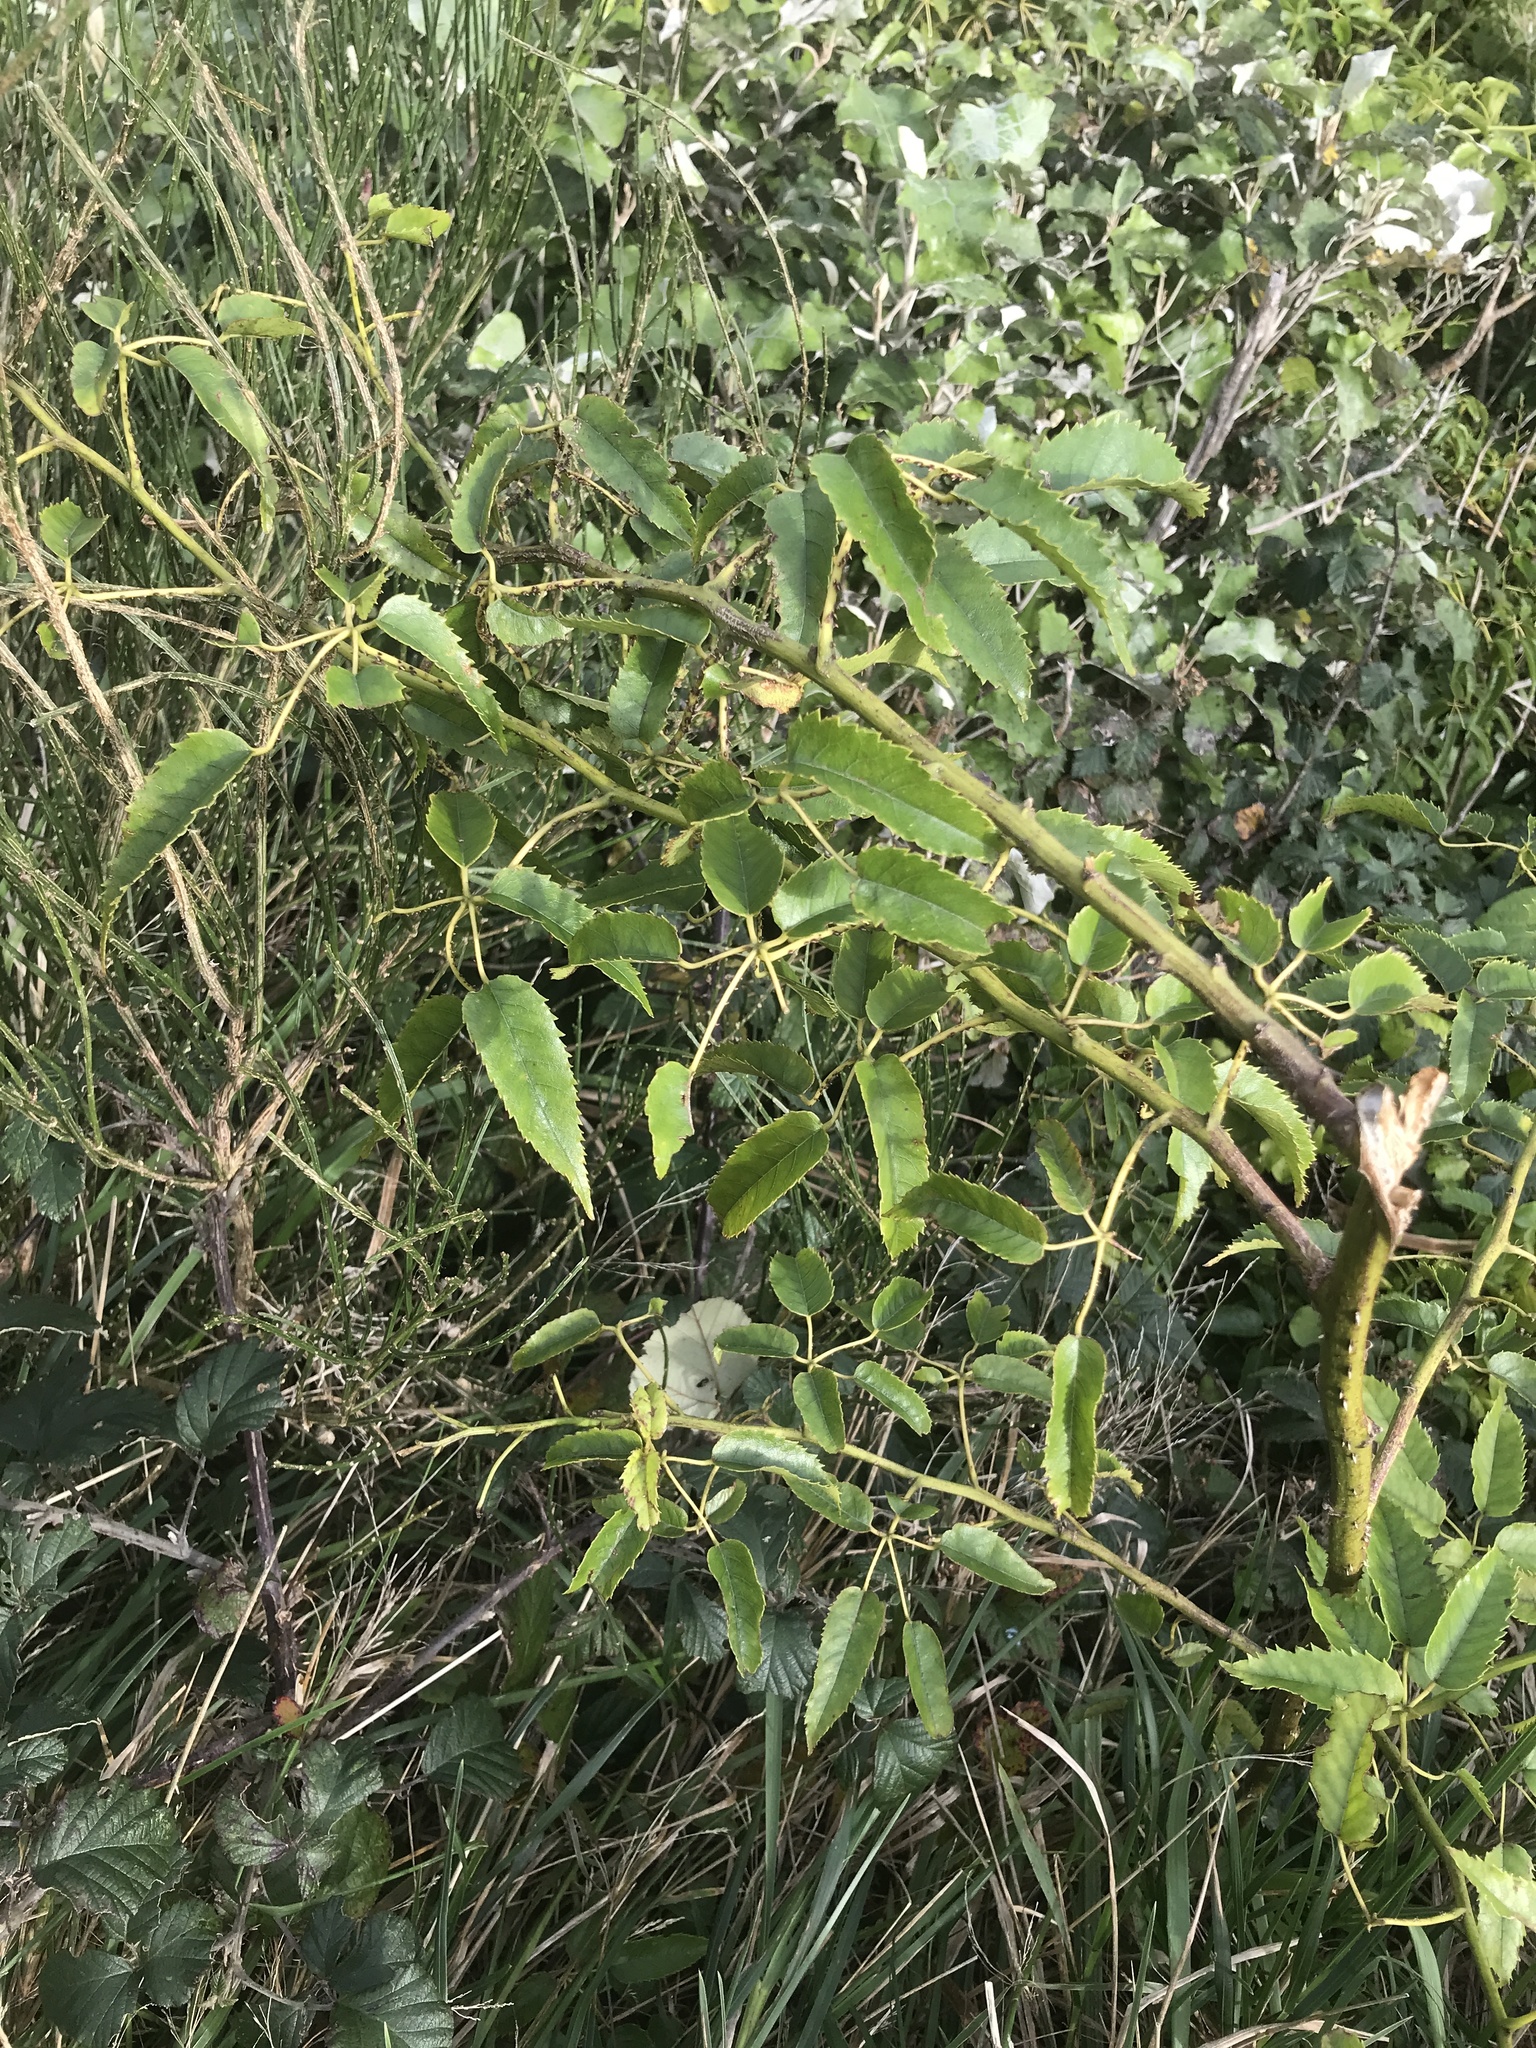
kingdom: Plantae
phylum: Tracheophyta
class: Magnoliopsida
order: Rosales
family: Rosaceae
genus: Rubus
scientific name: Rubus cissoides
